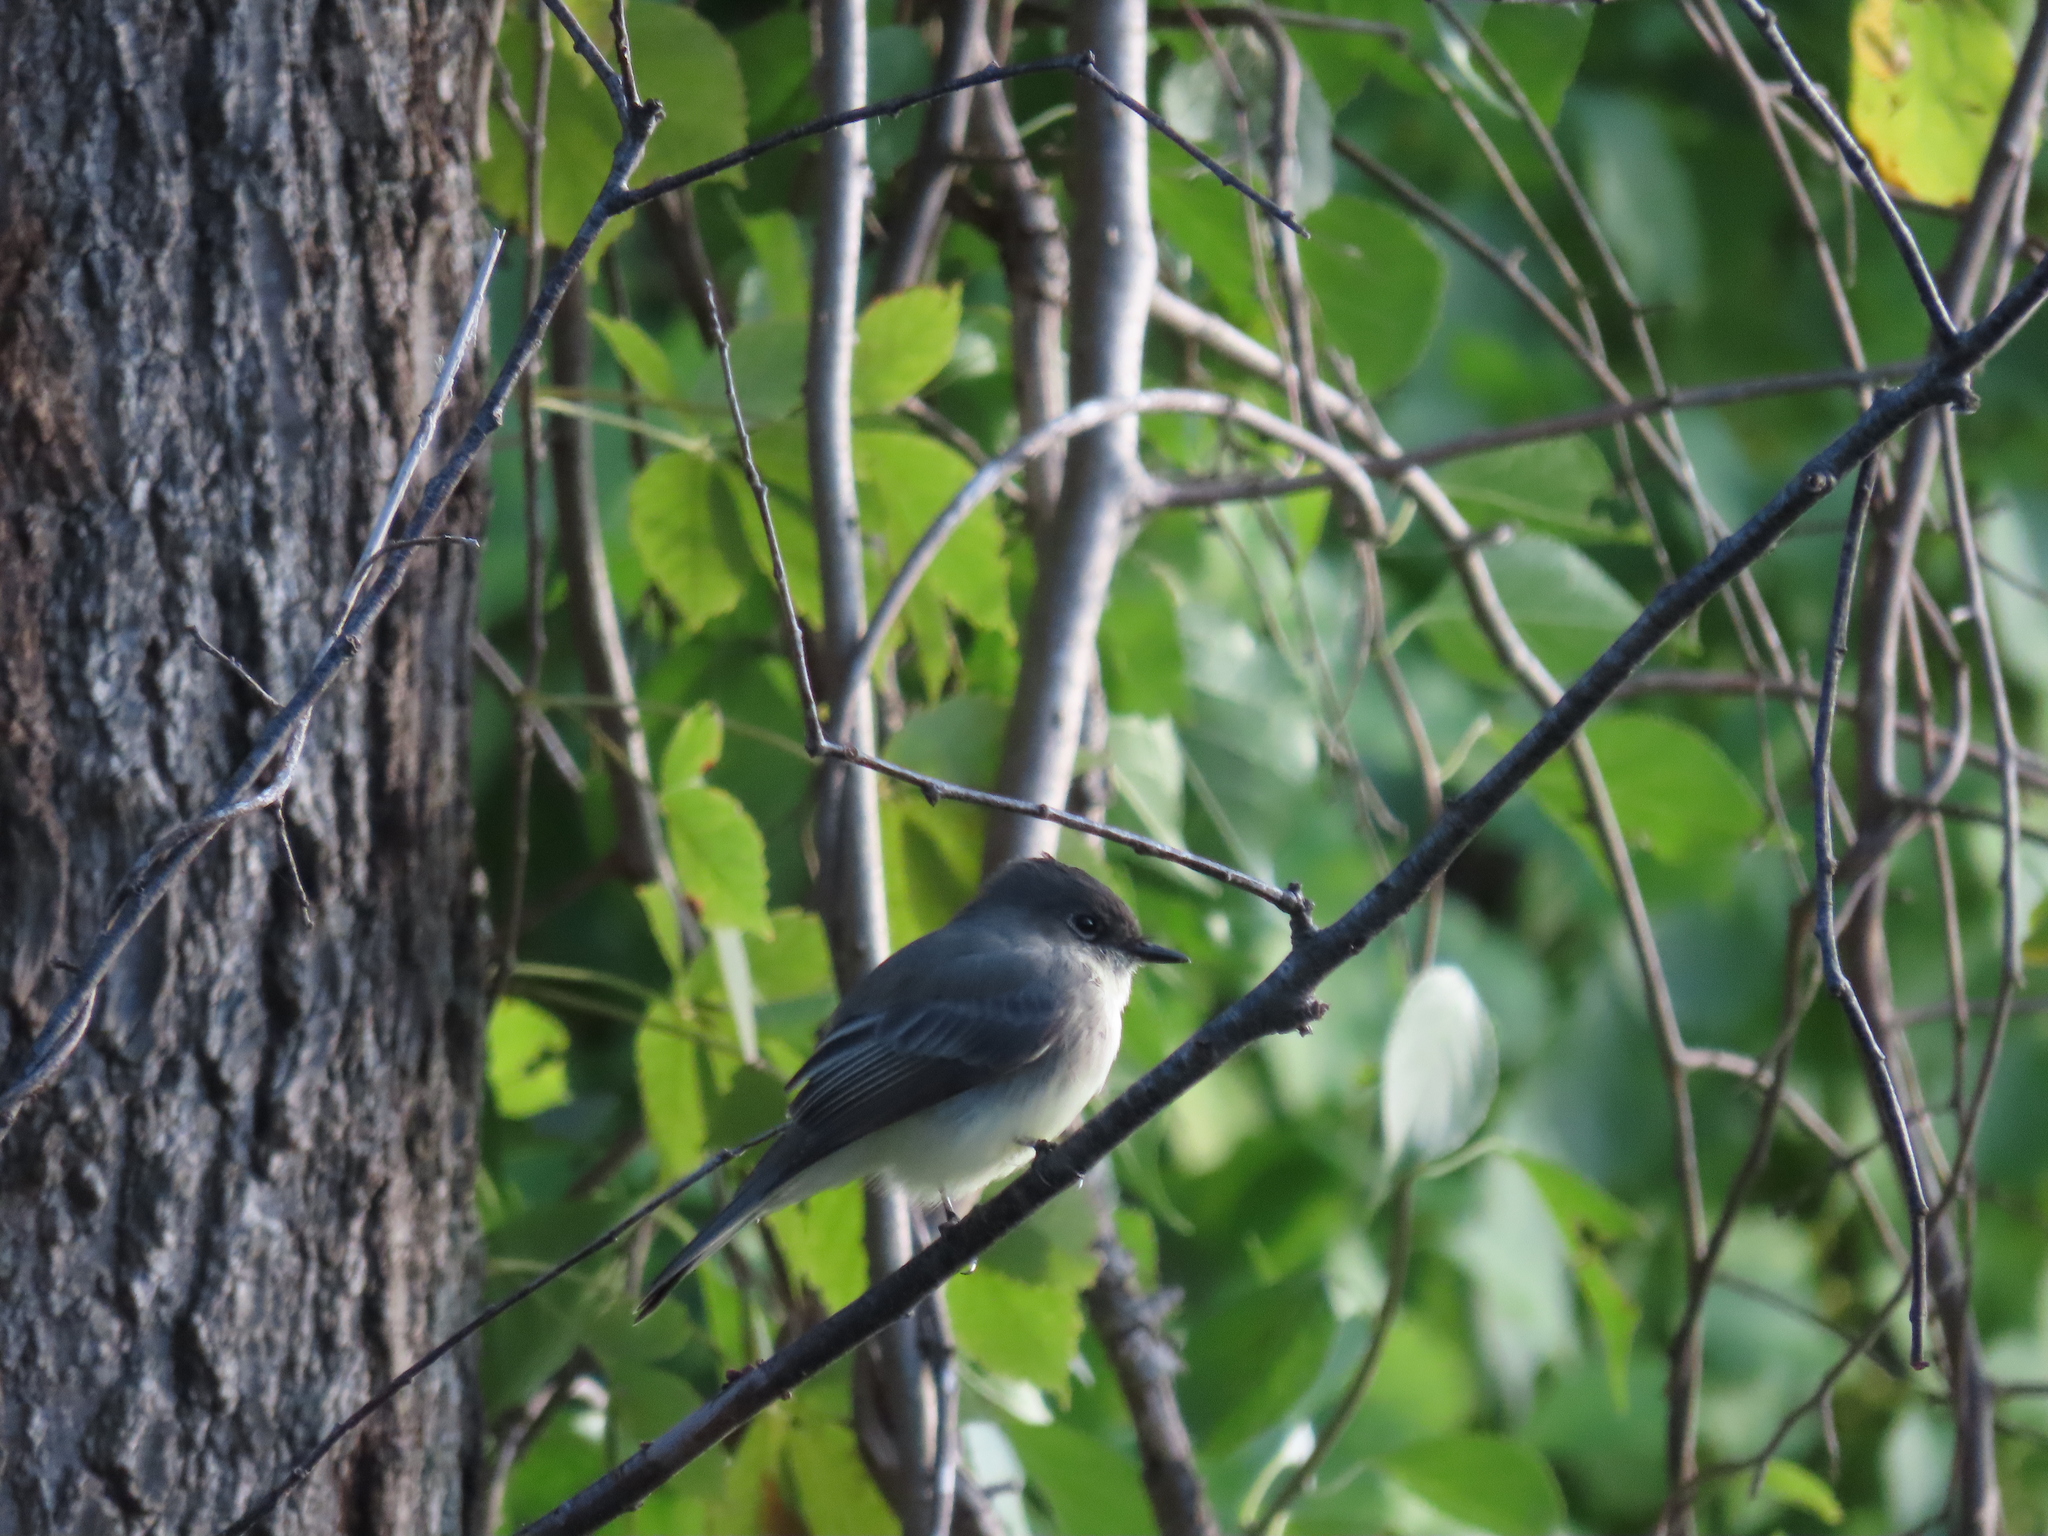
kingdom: Animalia
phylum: Chordata
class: Aves
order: Passeriformes
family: Tyrannidae
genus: Sayornis
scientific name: Sayornis phoebe
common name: Eastern phoebe
